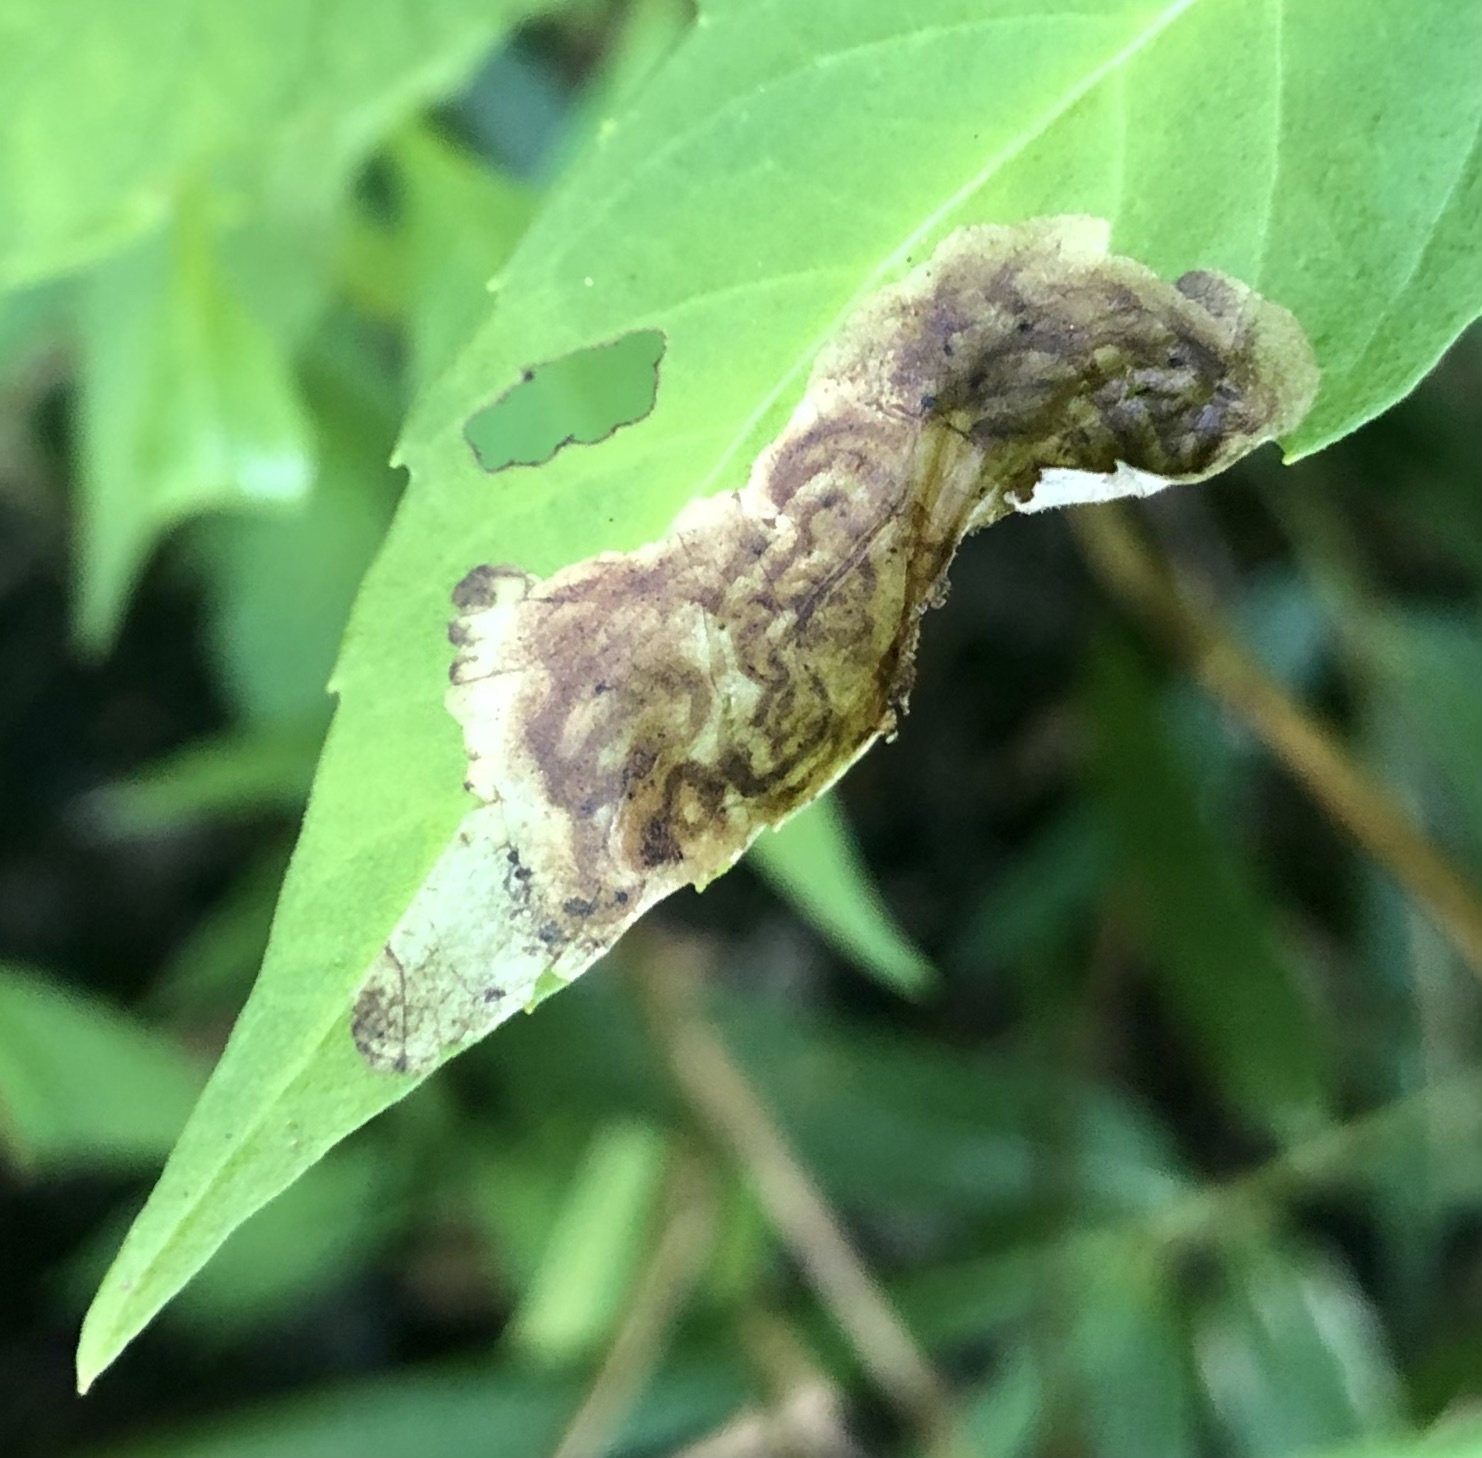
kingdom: Animalia
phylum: Arthropoda
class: Insecta
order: Diptera
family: Agromyzidae
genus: Calycomyza
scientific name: Calycomyza menthae
